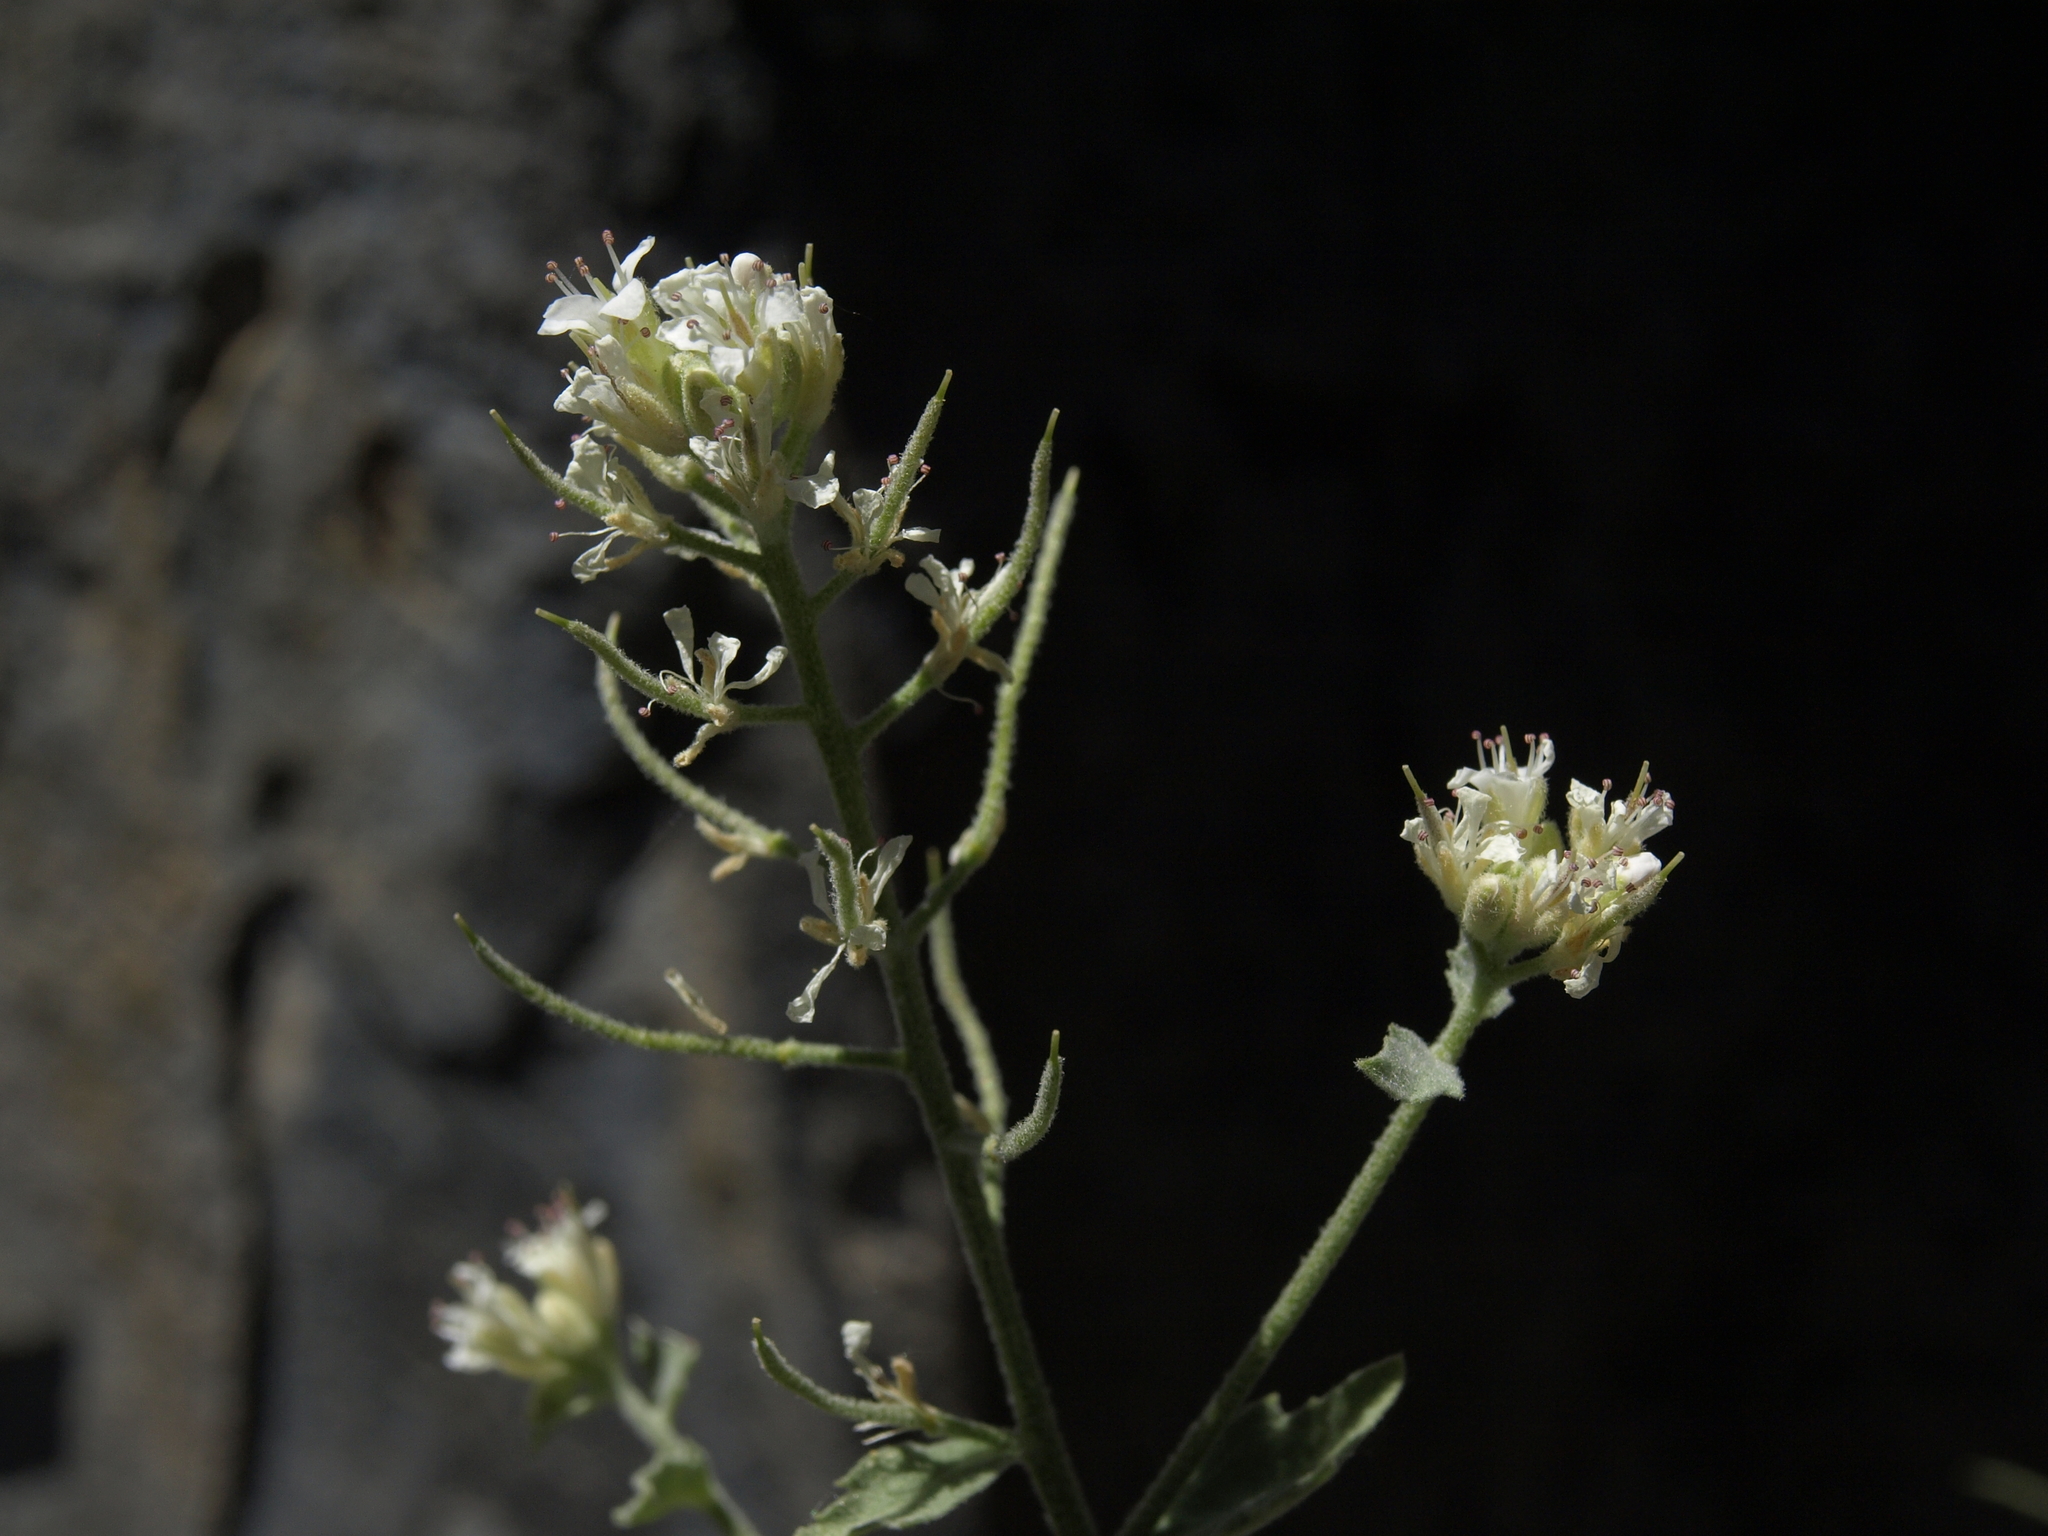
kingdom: Plantae
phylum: Tracheophyta
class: Magnoliopsida
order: Brassicales
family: Brassicaceae
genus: Halimolobos
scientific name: Halimolobos jaegeri
